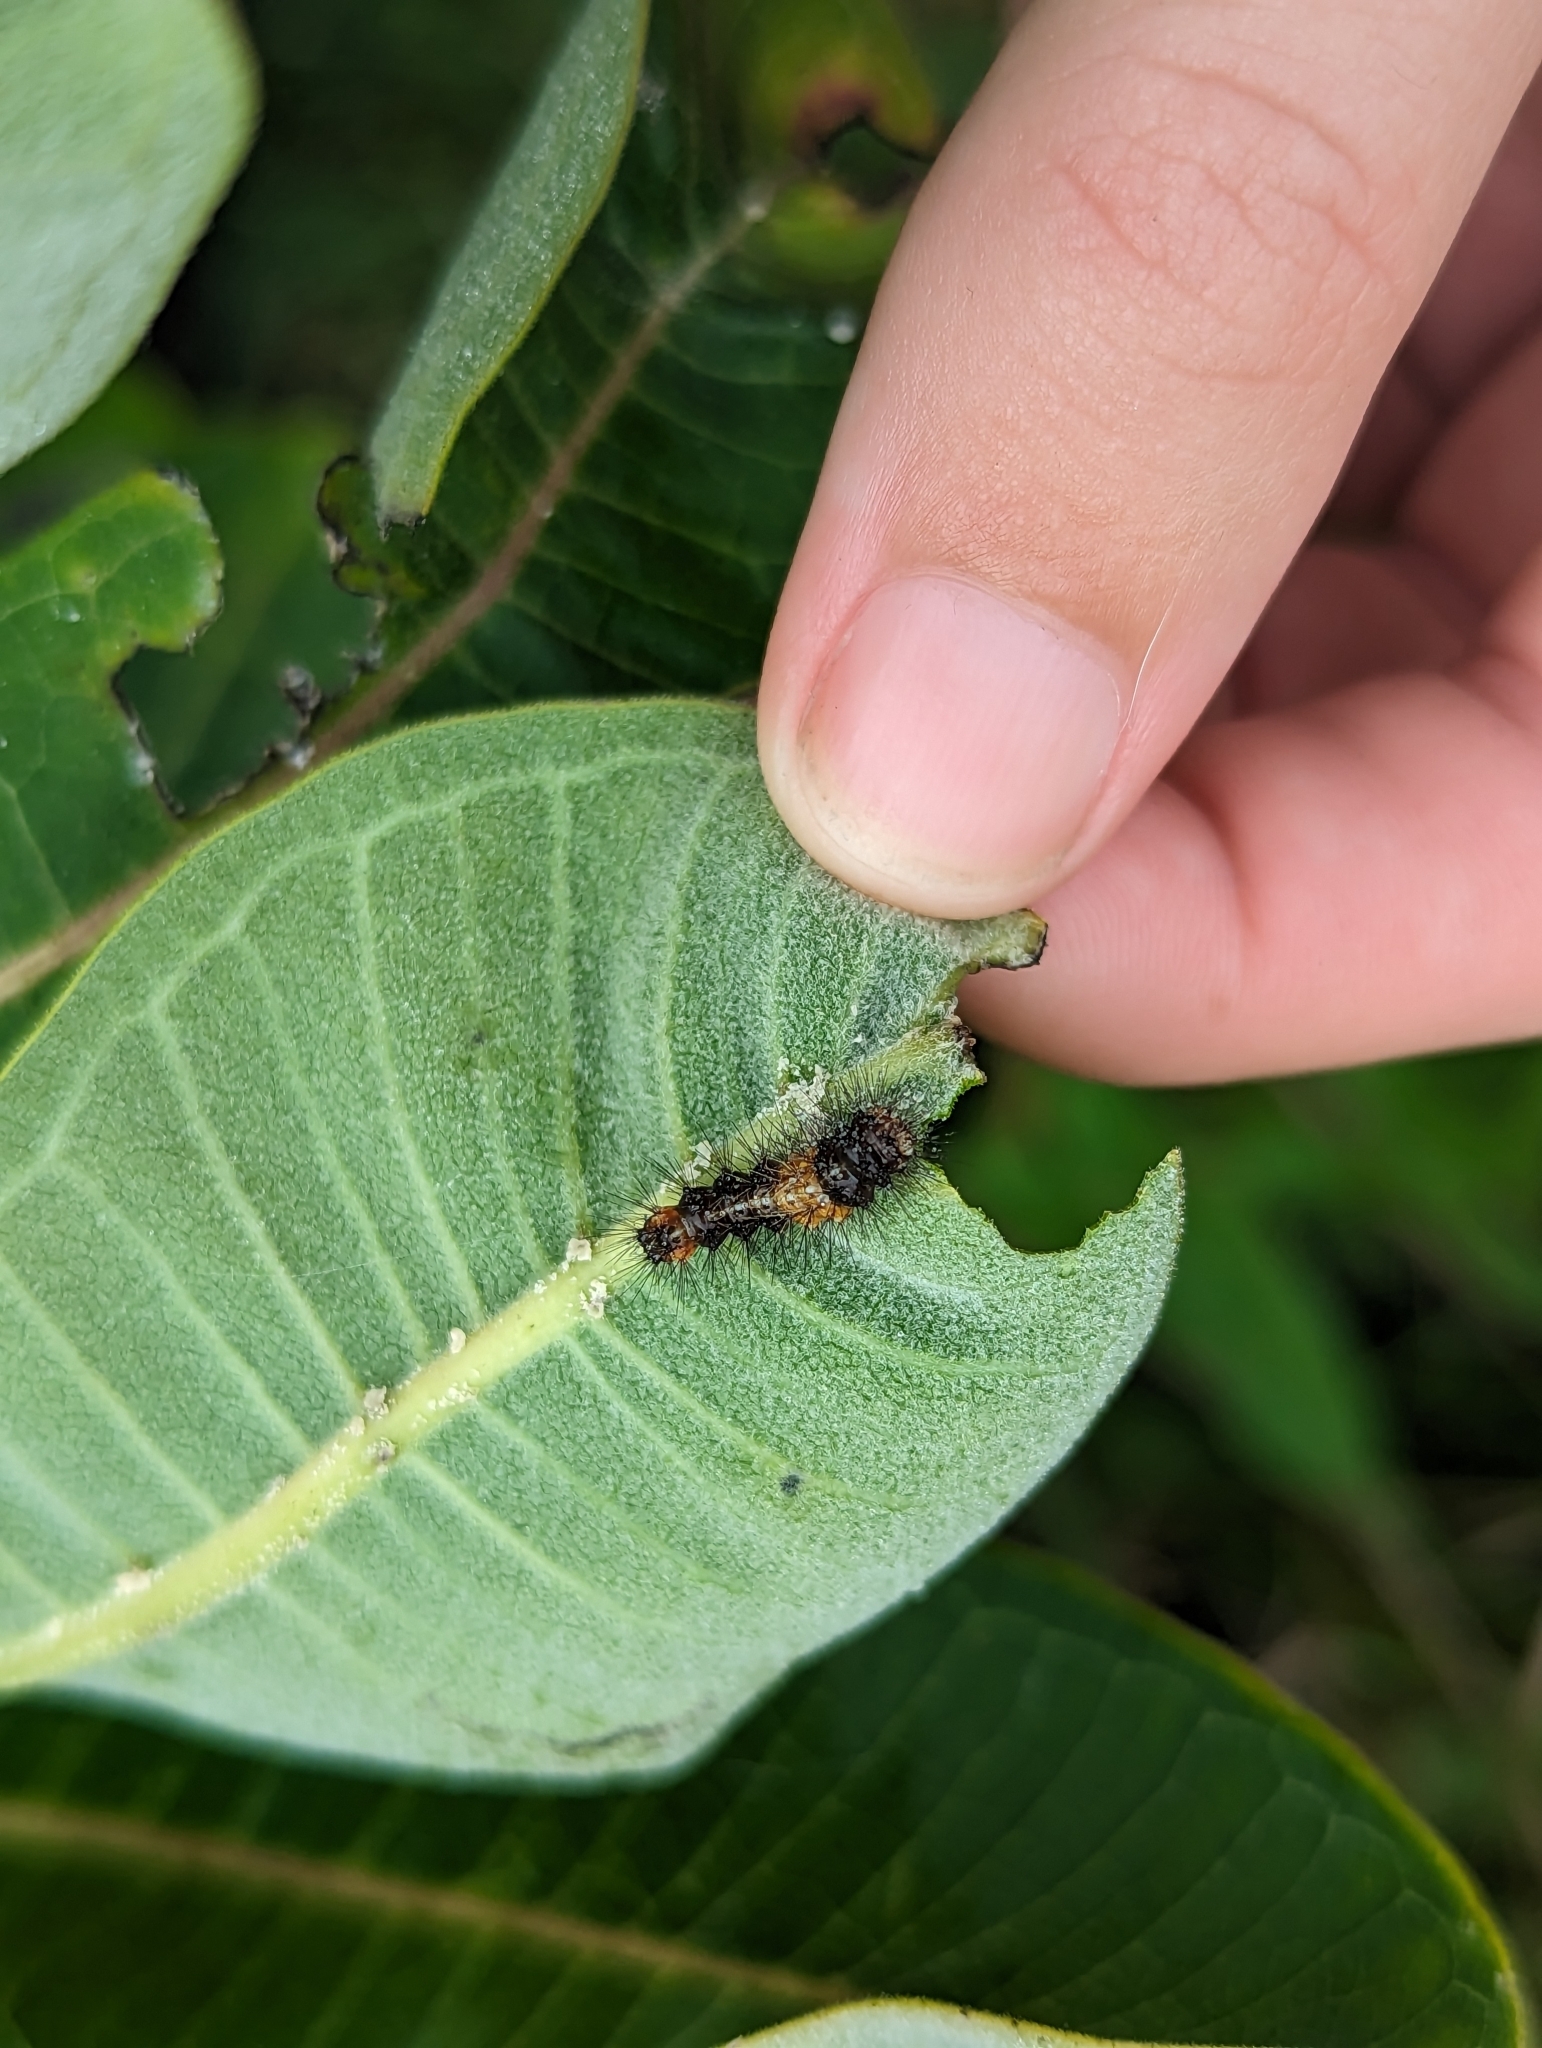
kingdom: Animalia
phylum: Arthropoda
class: Insecta
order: Lepidoptera
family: Erebidae
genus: Euchaetes
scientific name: Euchaetes egle
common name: Milkweed tussock moth
